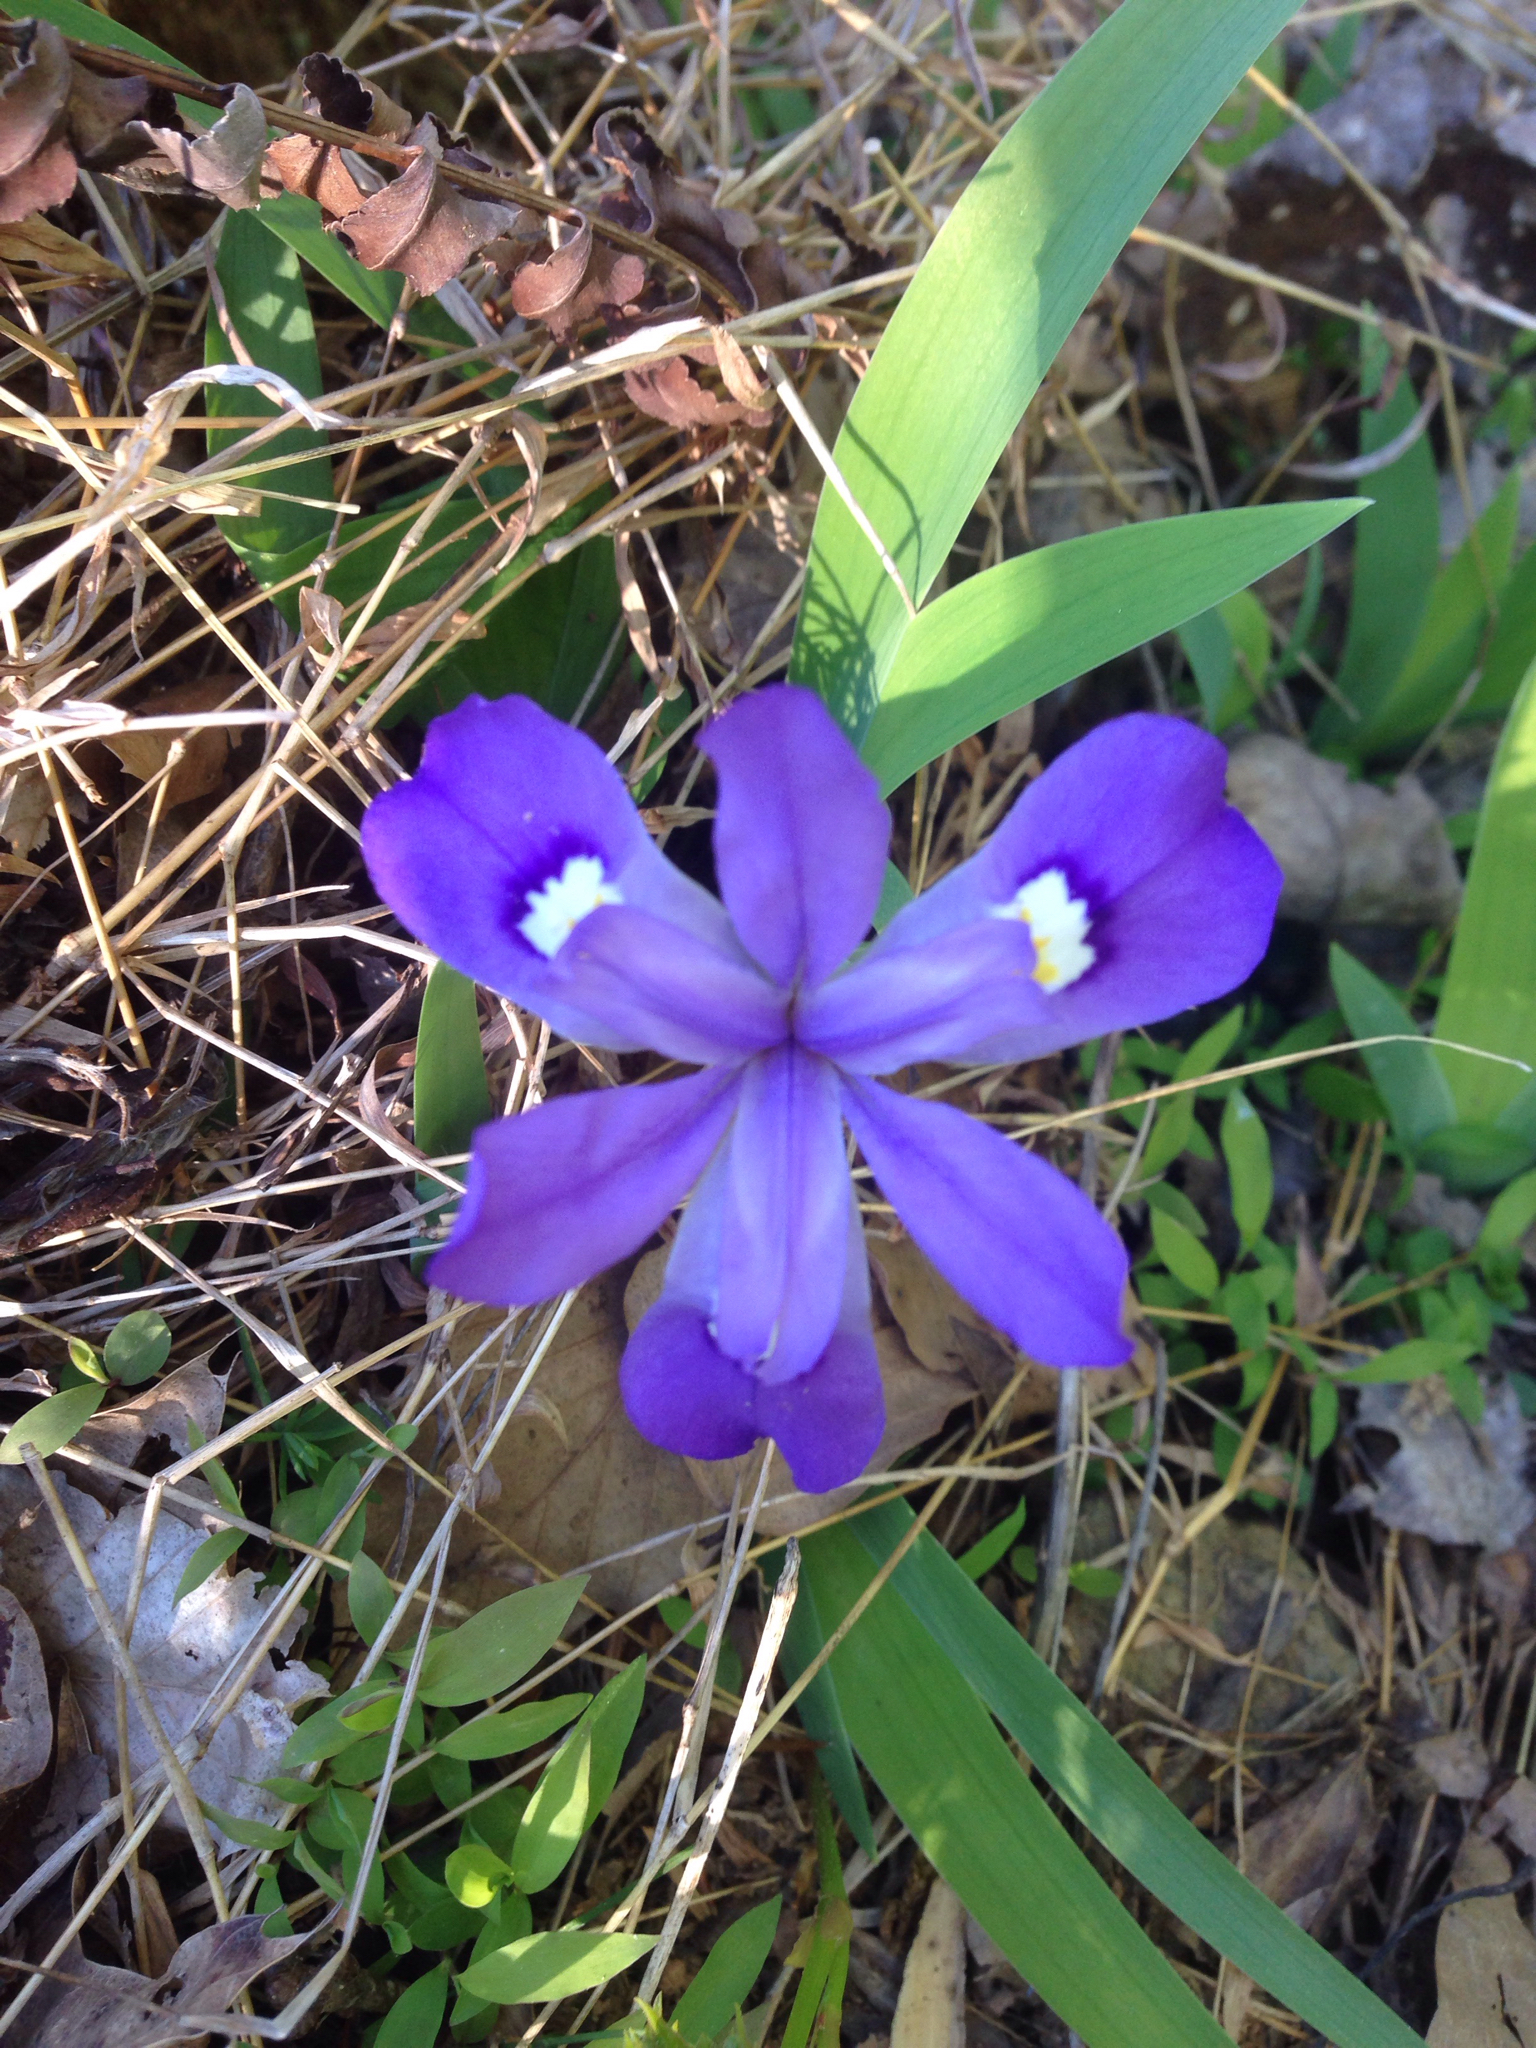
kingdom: Plantae
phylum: Tracheophyta
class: Liliopsida
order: Asparagales
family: Iridaceae
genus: Iris
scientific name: Iris cristata
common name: Crested iris
